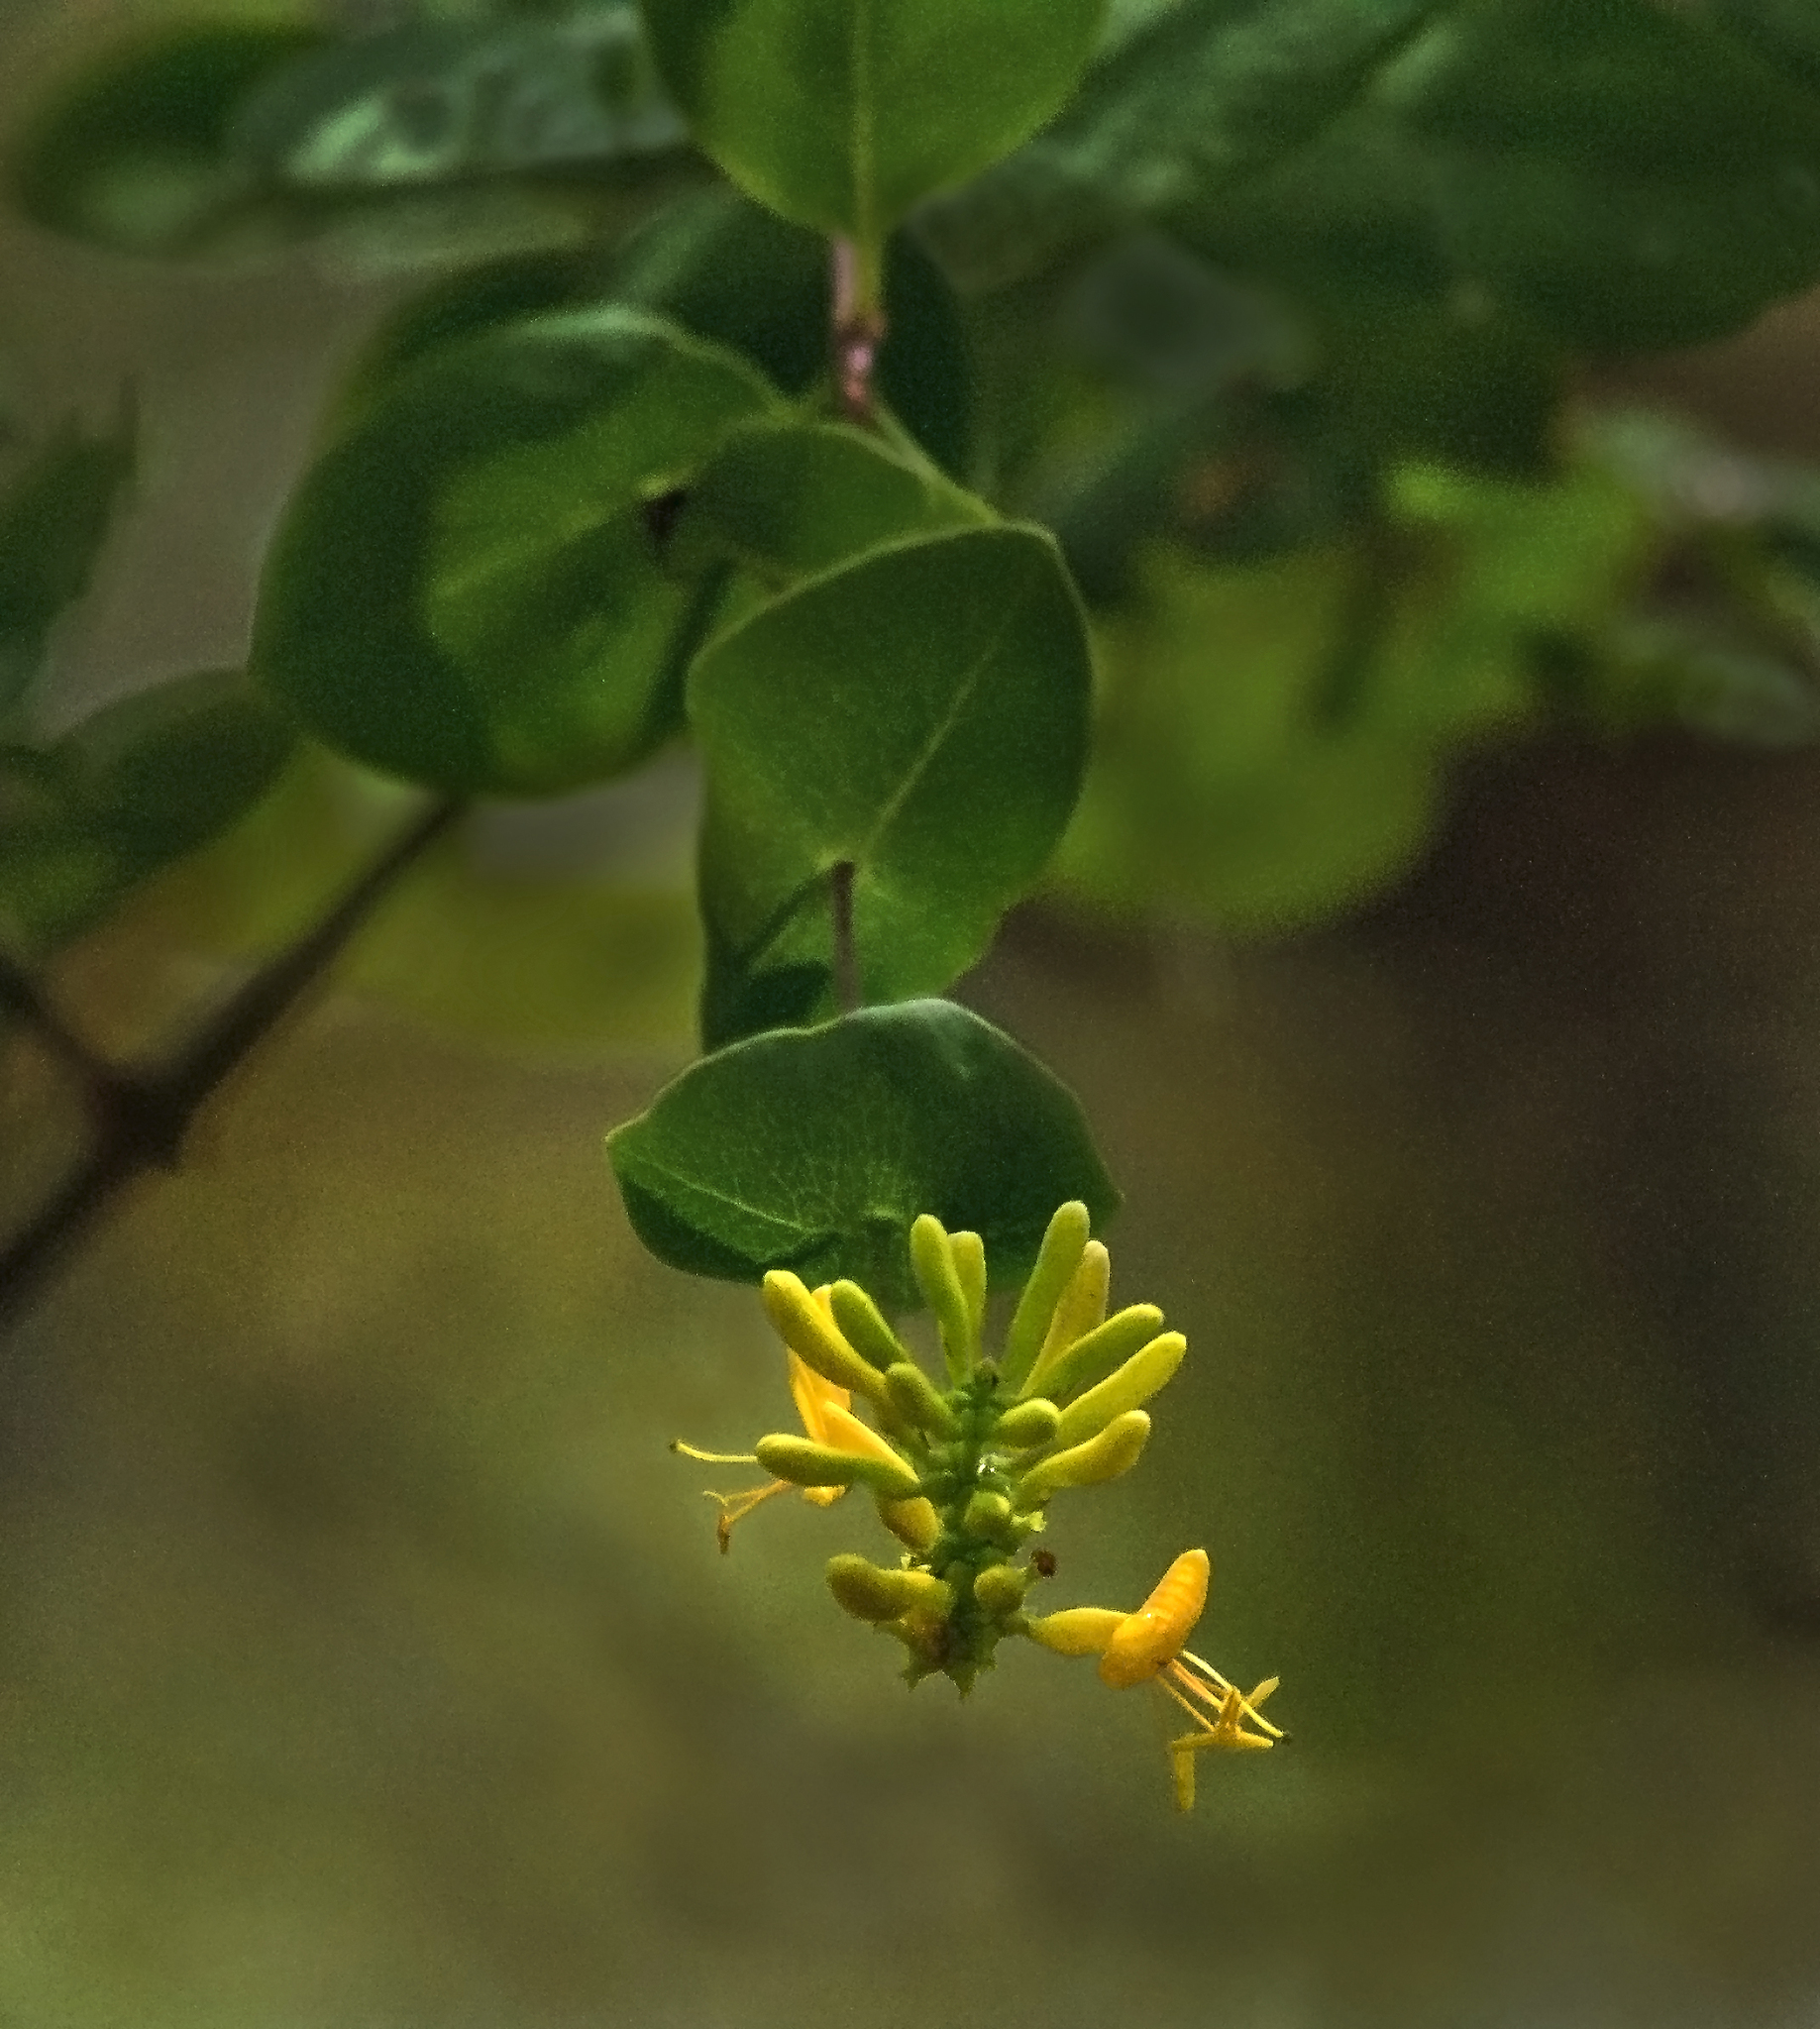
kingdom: Plantae
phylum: Tracheophyta
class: Magnoliopsida
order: Dipsacales
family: Caprifoliaceae
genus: Lonicera
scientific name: Lonicera interrupta
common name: Chaparral honeysuckle
